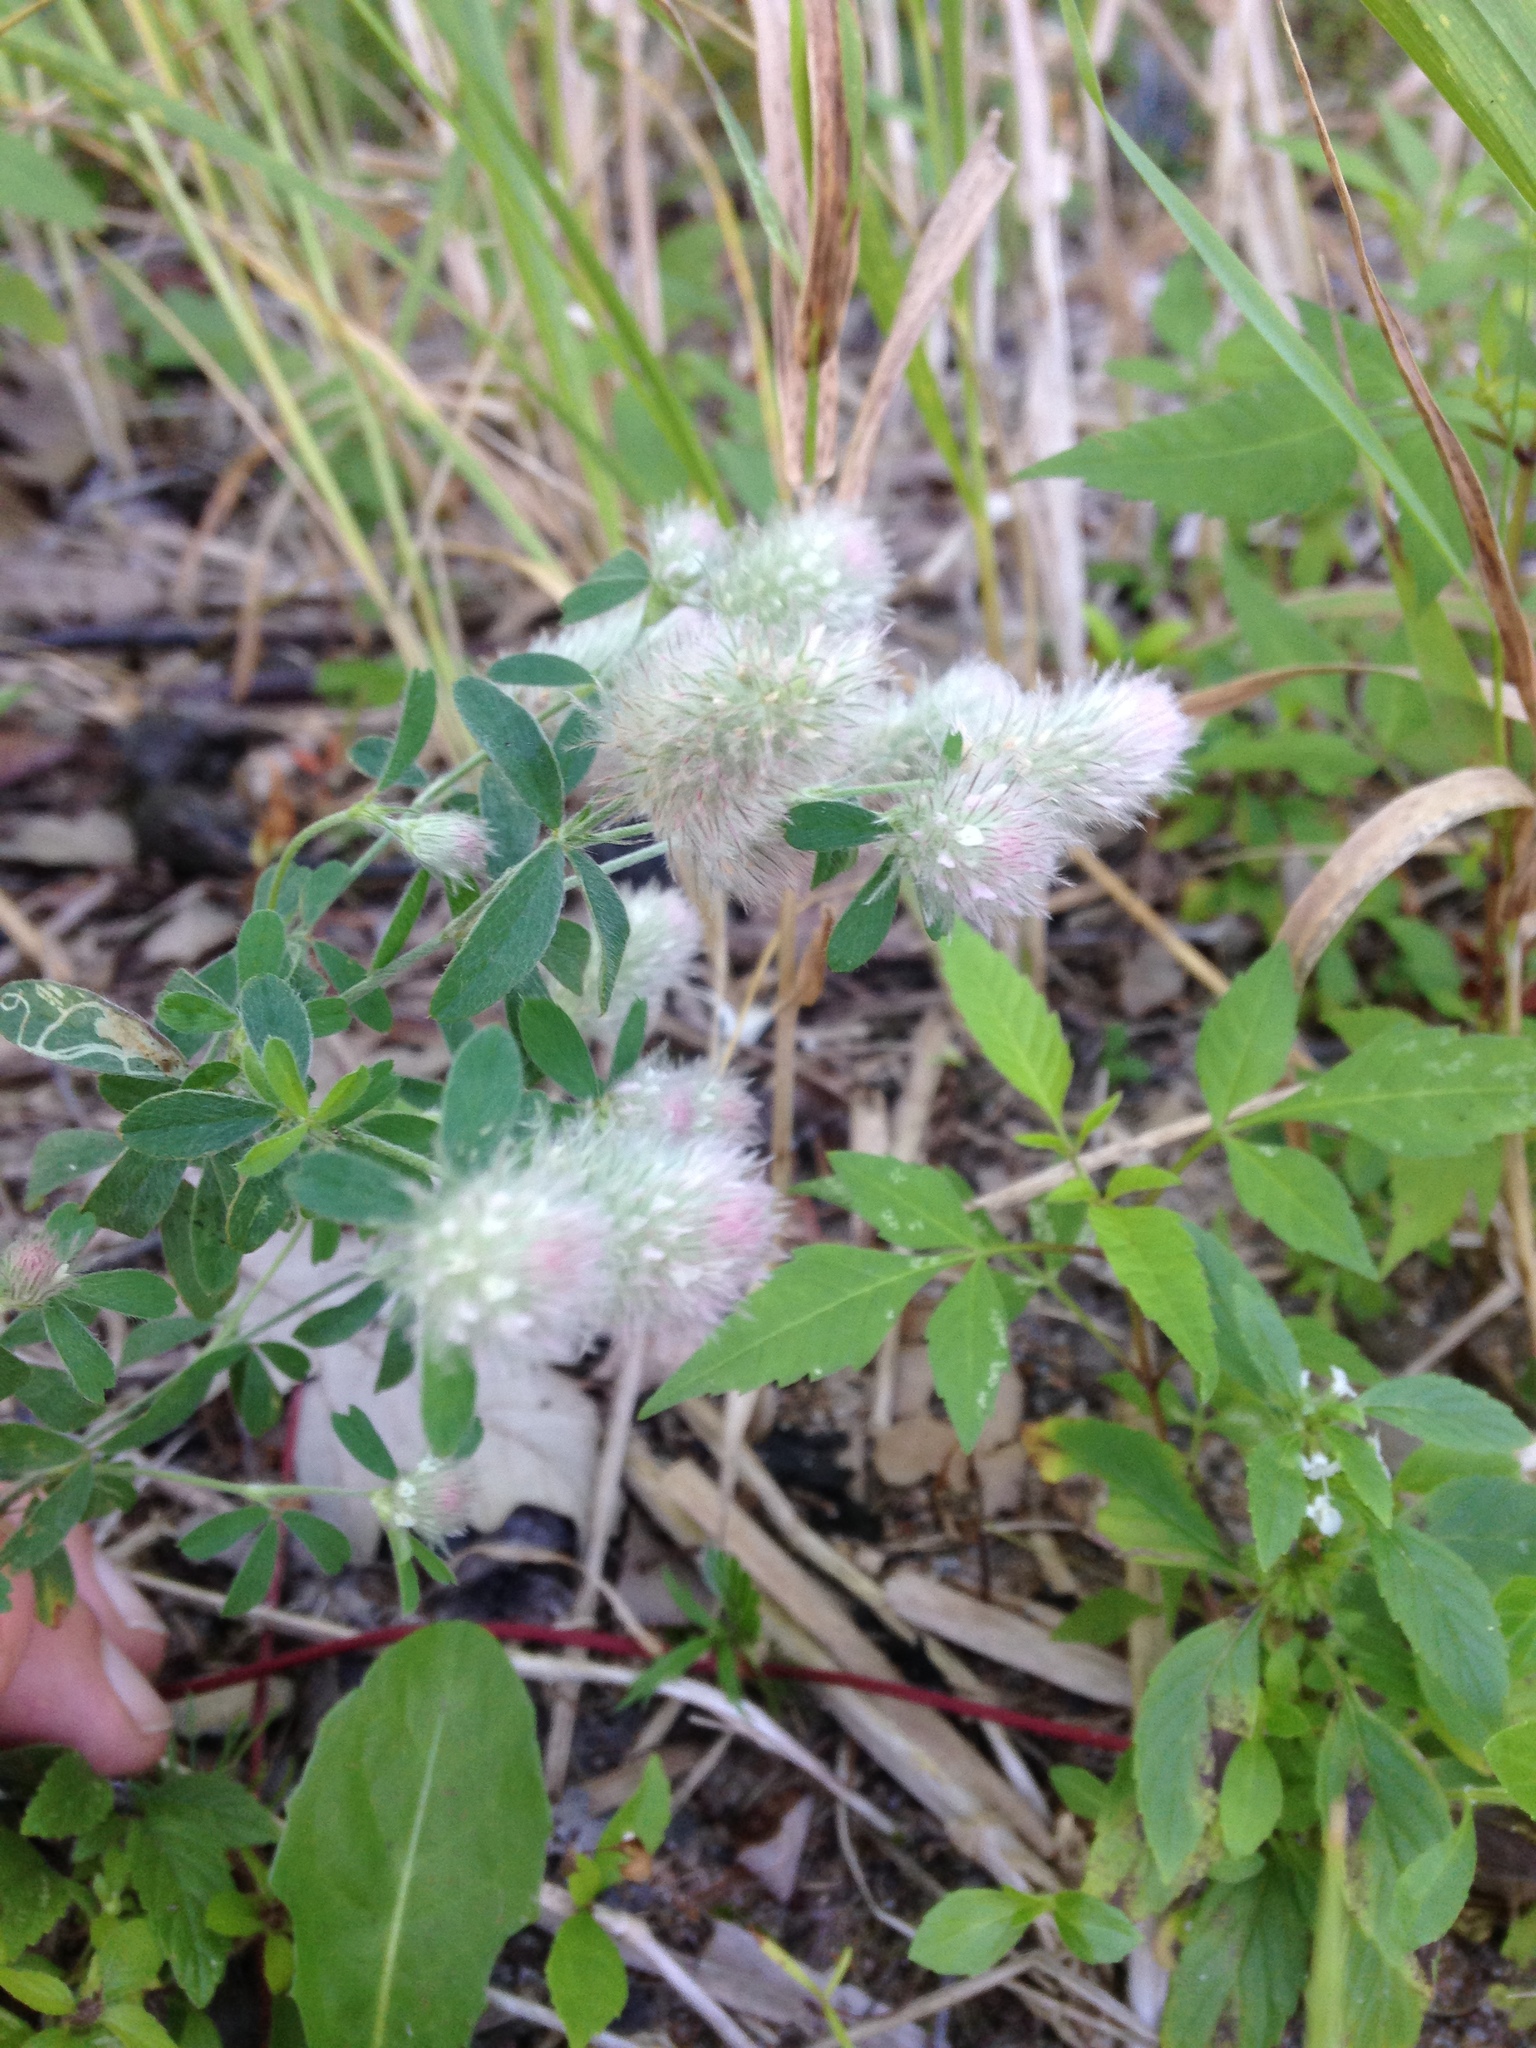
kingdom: Plantae
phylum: Tracheophyta
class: Magnoliopsida
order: Fabales
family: Fabaceae
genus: Trifolium
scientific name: Trifolium arvense
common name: Hare's-foot clover
